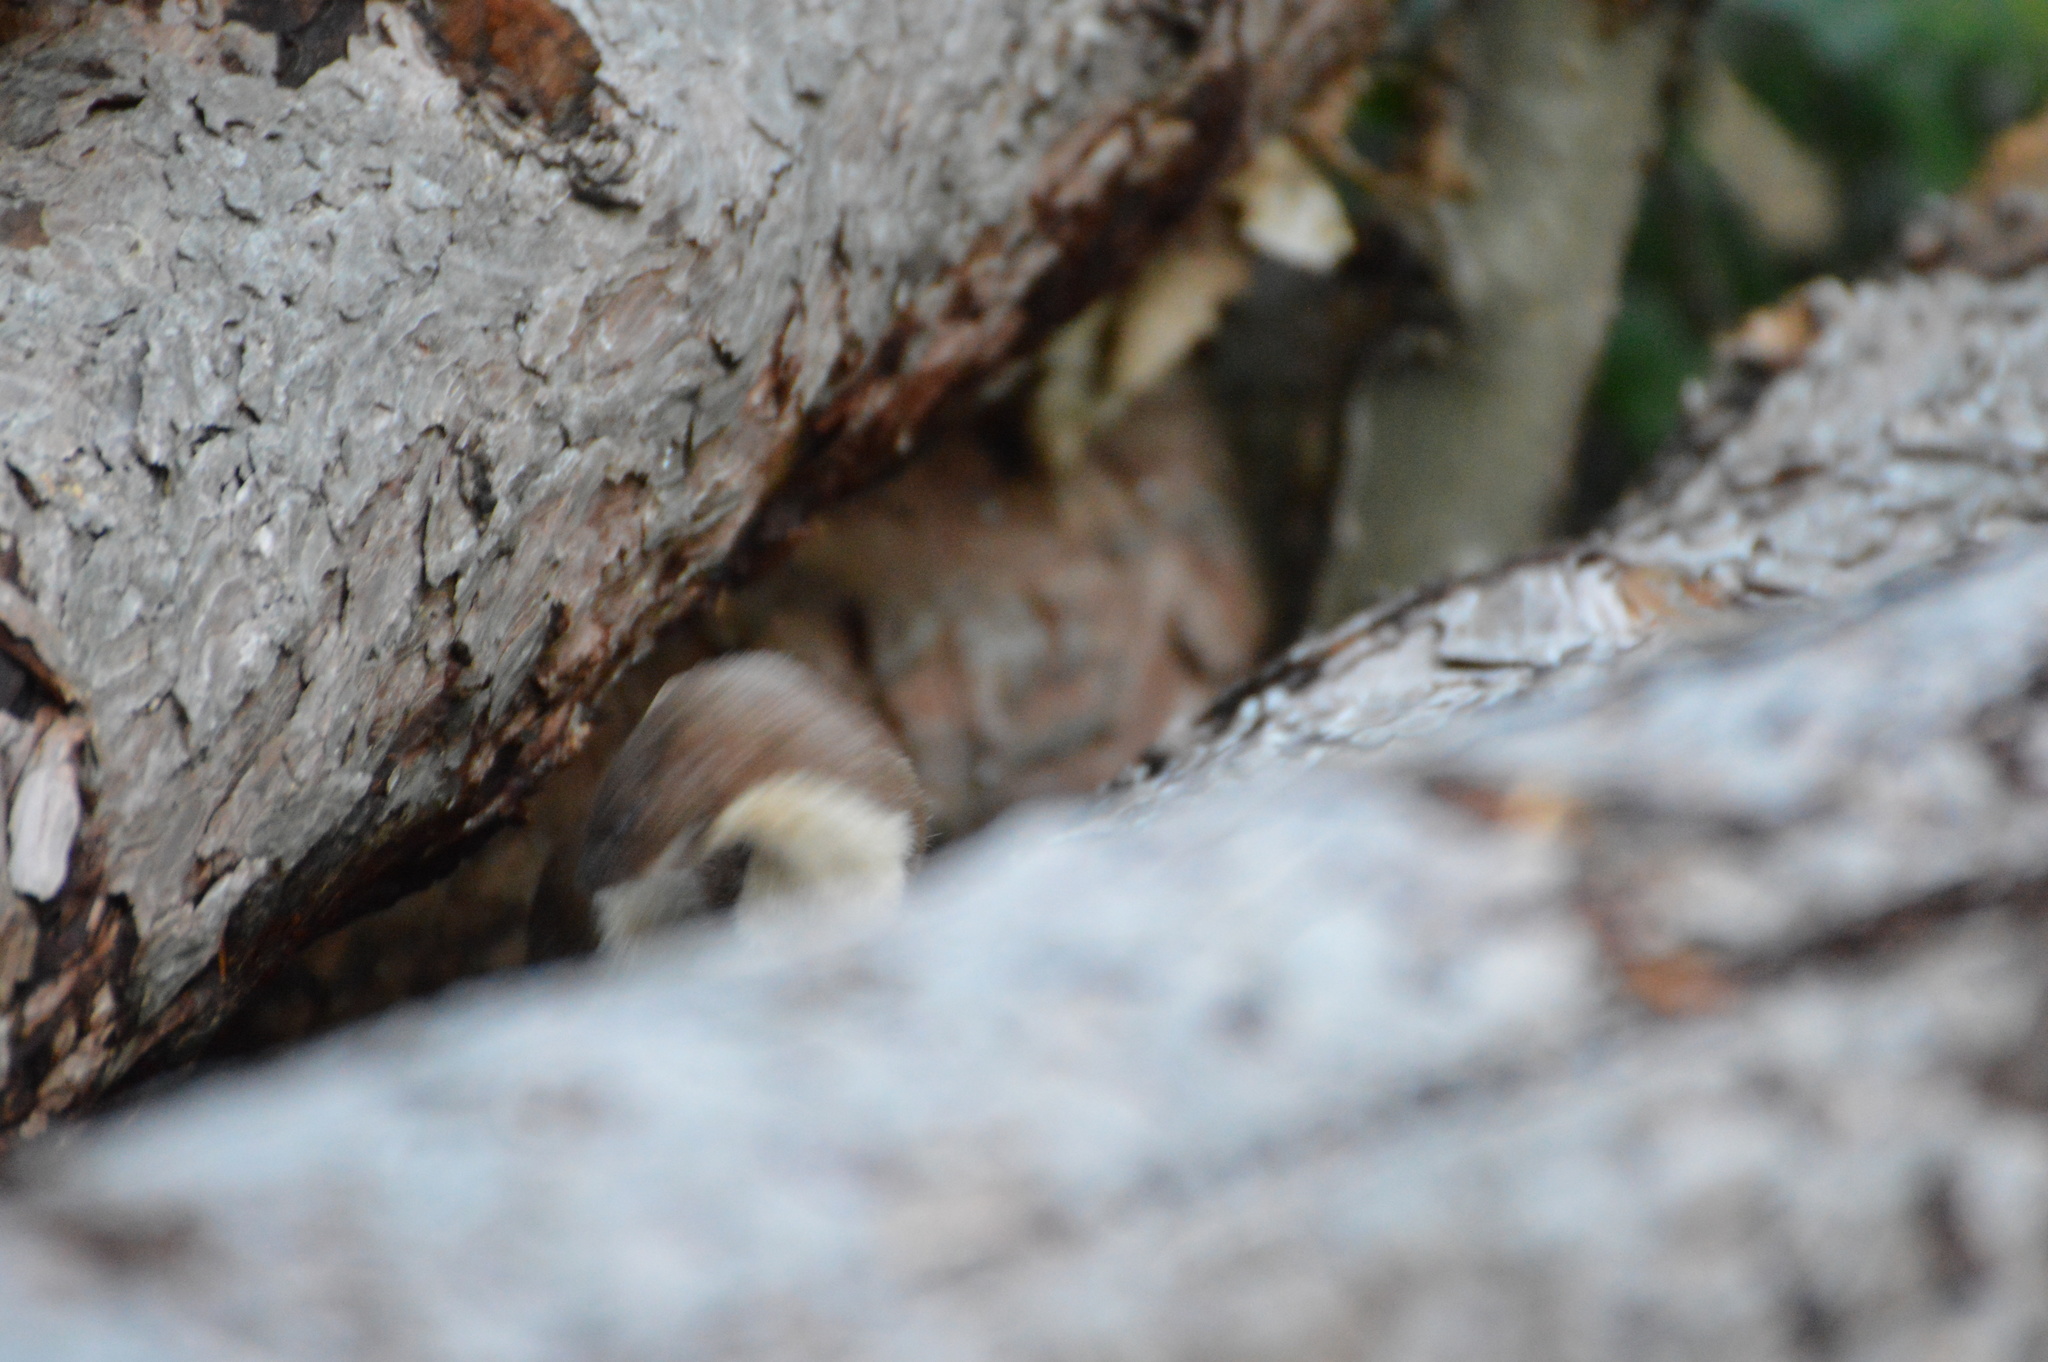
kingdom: Animalia
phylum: Chordata
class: Mammalia
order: Carnivora
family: Mustelidae
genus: Mustela
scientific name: Mustela nivalis
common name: Least weasel
